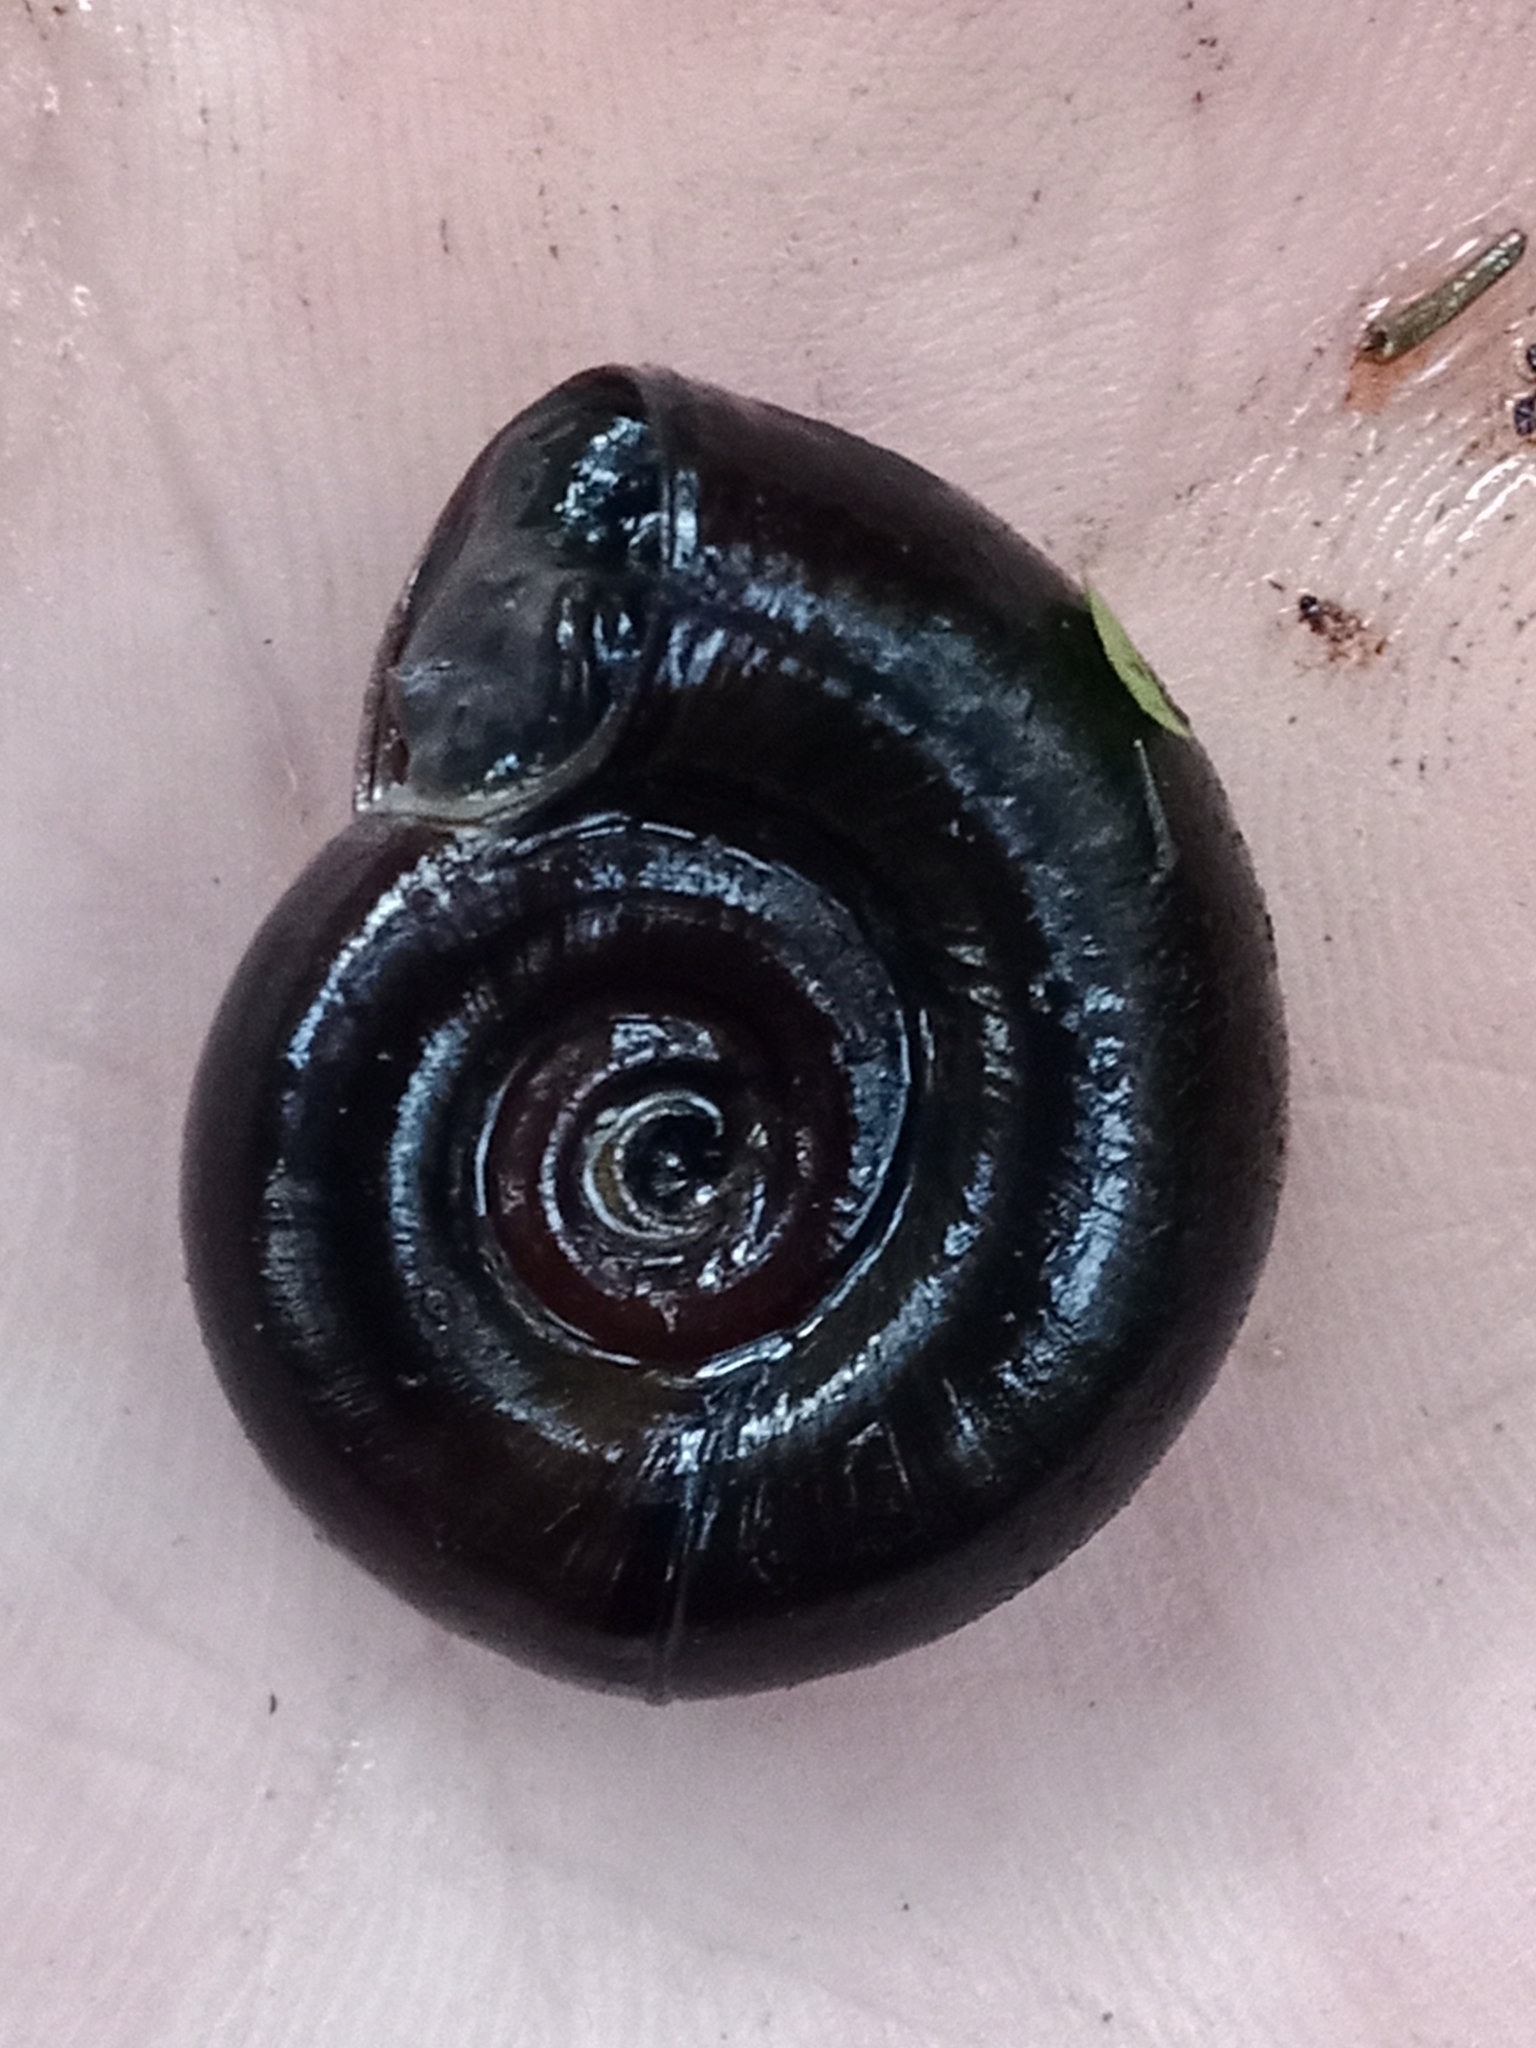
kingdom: Animalia
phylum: Mollusca
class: Gastropoda
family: Planorbidae
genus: Planorbarius
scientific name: Planorbarius corneus
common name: Great ramshorn
